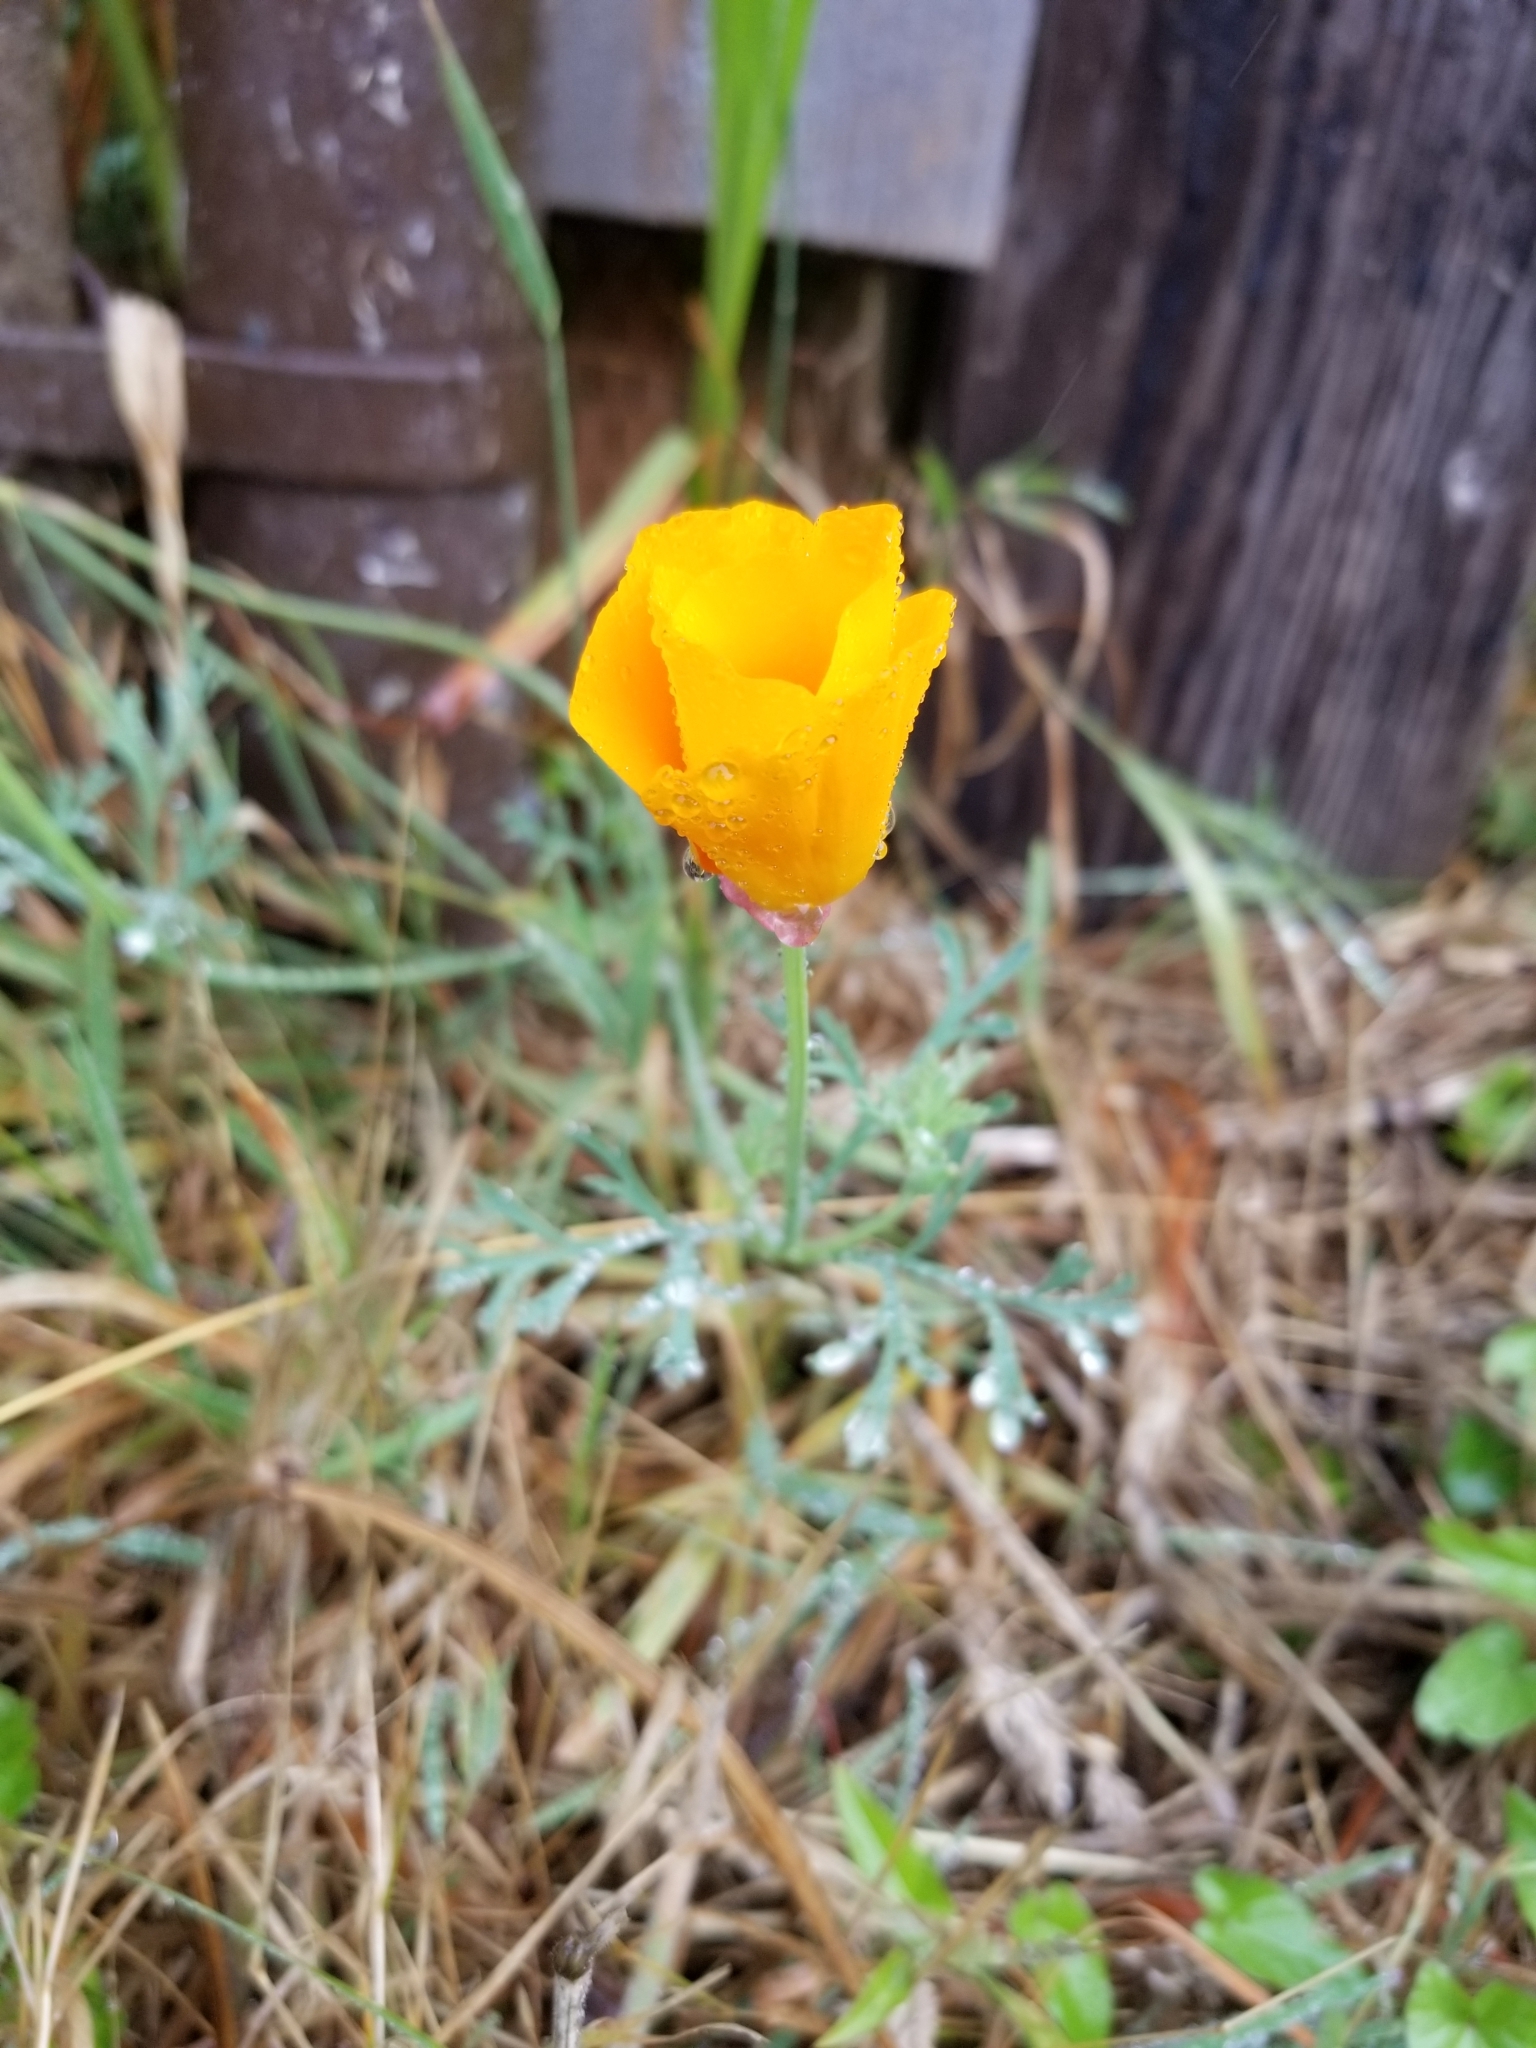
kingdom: Plantae
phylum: Tracheophyta
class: Magnoliopsida
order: Ranunculales
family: Papaveraceae
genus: Eschscholzia
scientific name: Eschscholzia californica
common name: California poppy
